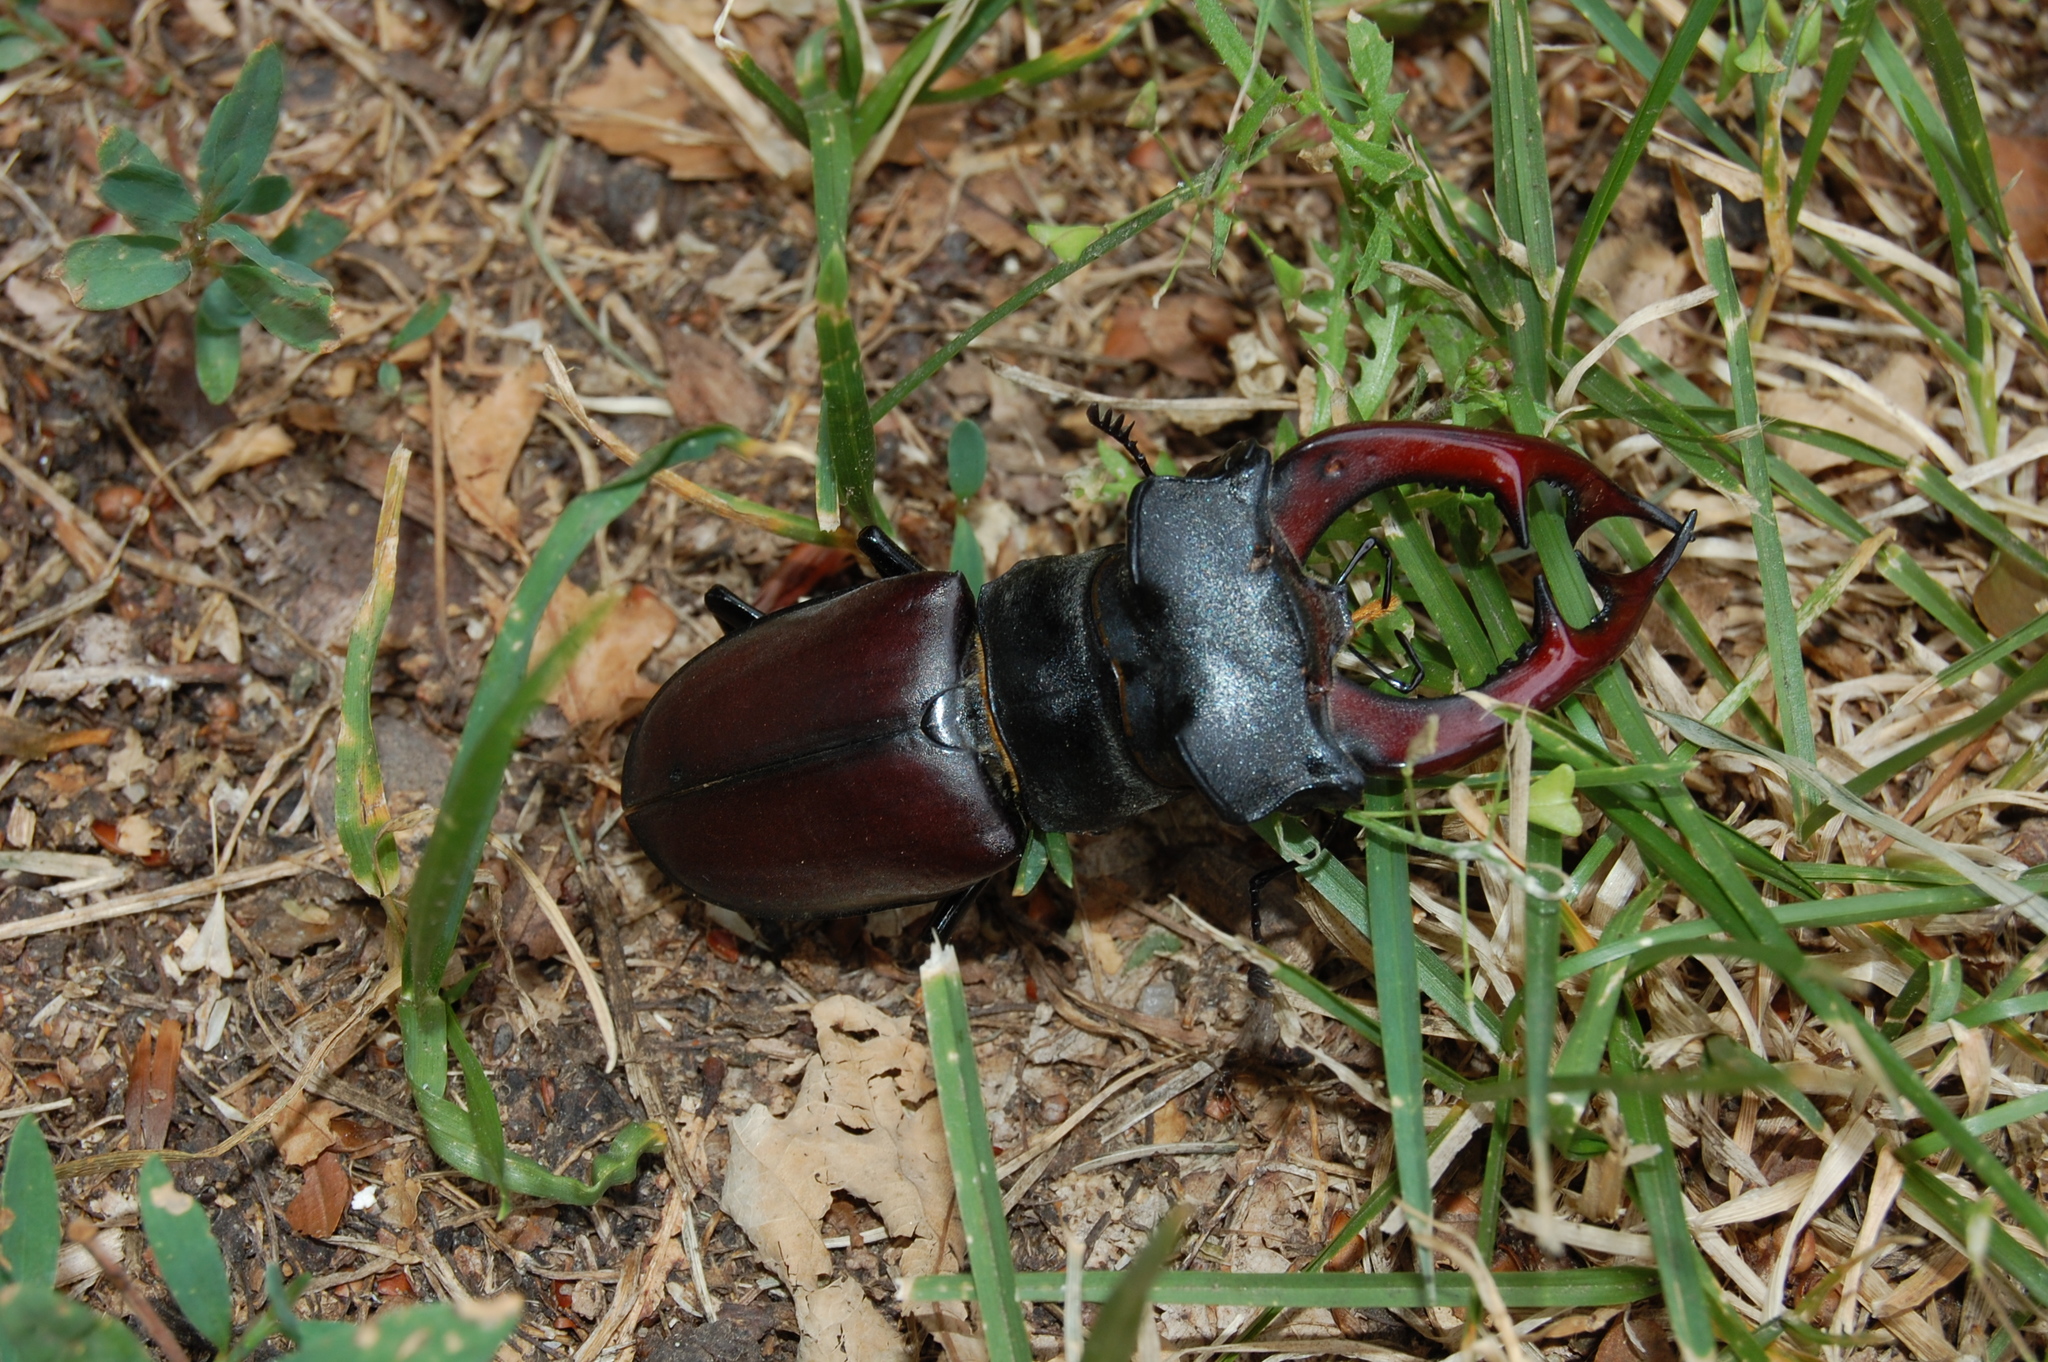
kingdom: Animalia
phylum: Arthropoda
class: Insecta
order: Coleoptera
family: Lucanidae
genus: Lucanus
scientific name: Lucanus cervus
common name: Stag beetle
